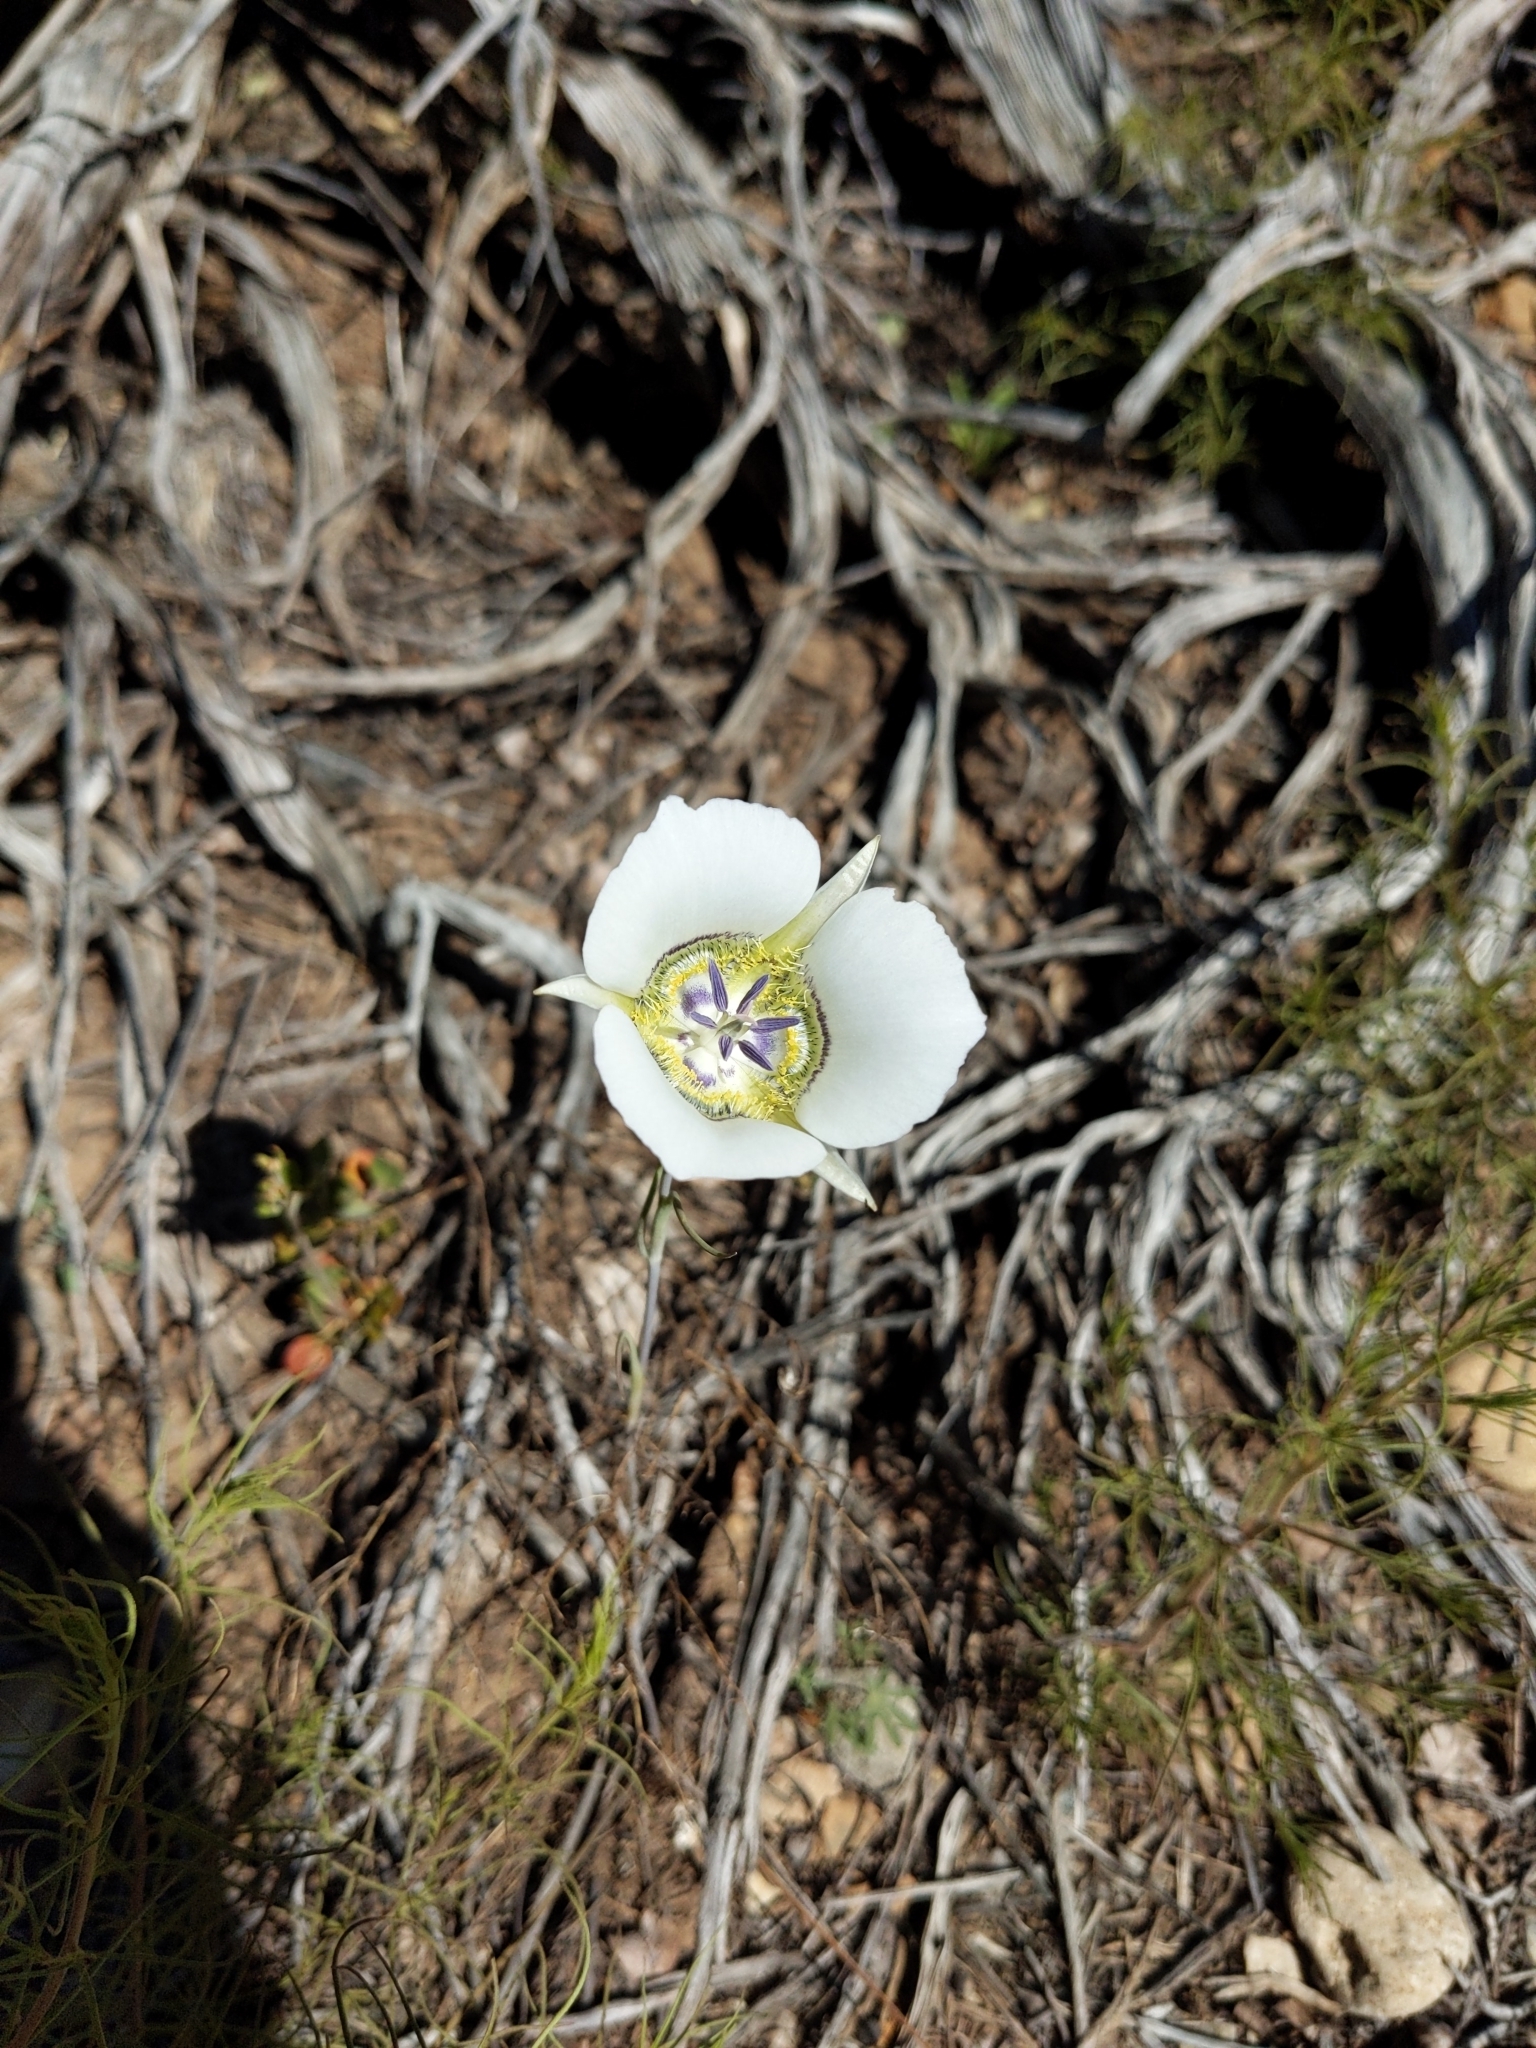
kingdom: Plantae
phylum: Tracheophyta
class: Liliopsida
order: Liliales
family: Liliaceae
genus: Calochortus
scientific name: Calochortus gunnisonii
